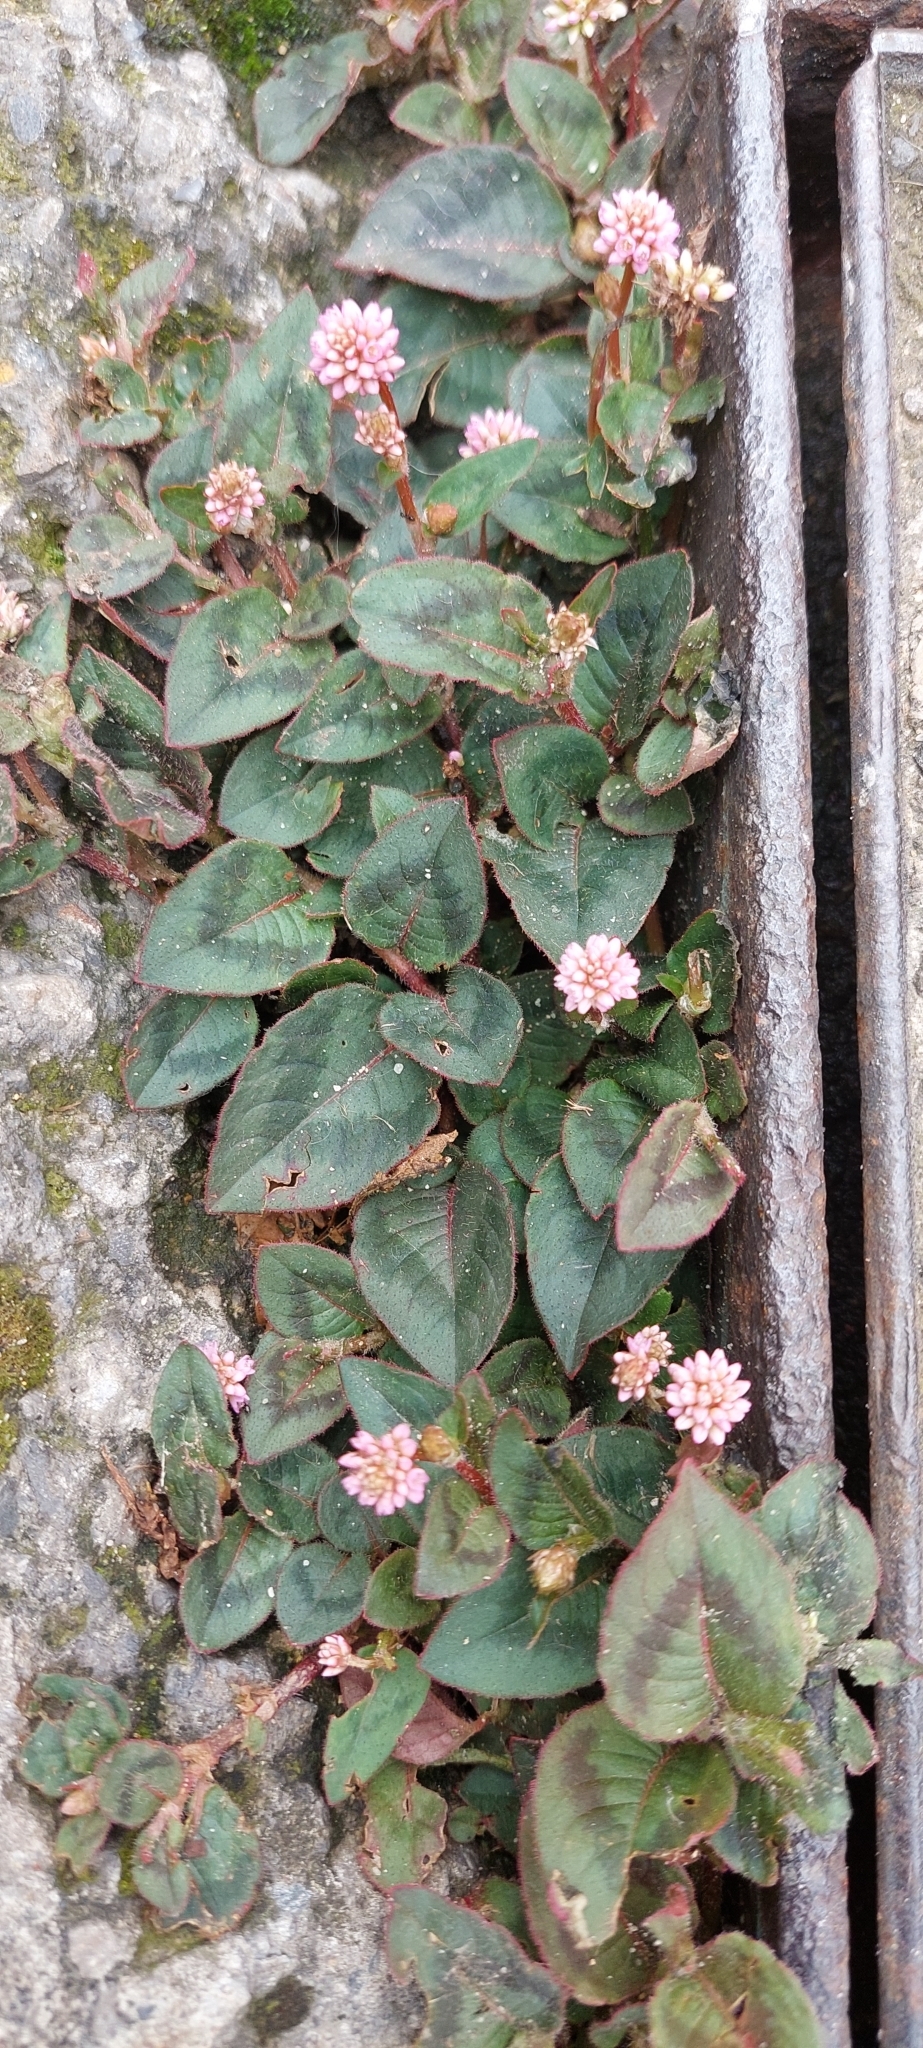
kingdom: Plantae
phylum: Tracheophyta
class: Magnoliopsida
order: Caryophyllales
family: Polygonaceae
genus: Persicaria
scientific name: Persicaria capitata
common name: Pinkhead smartweed
